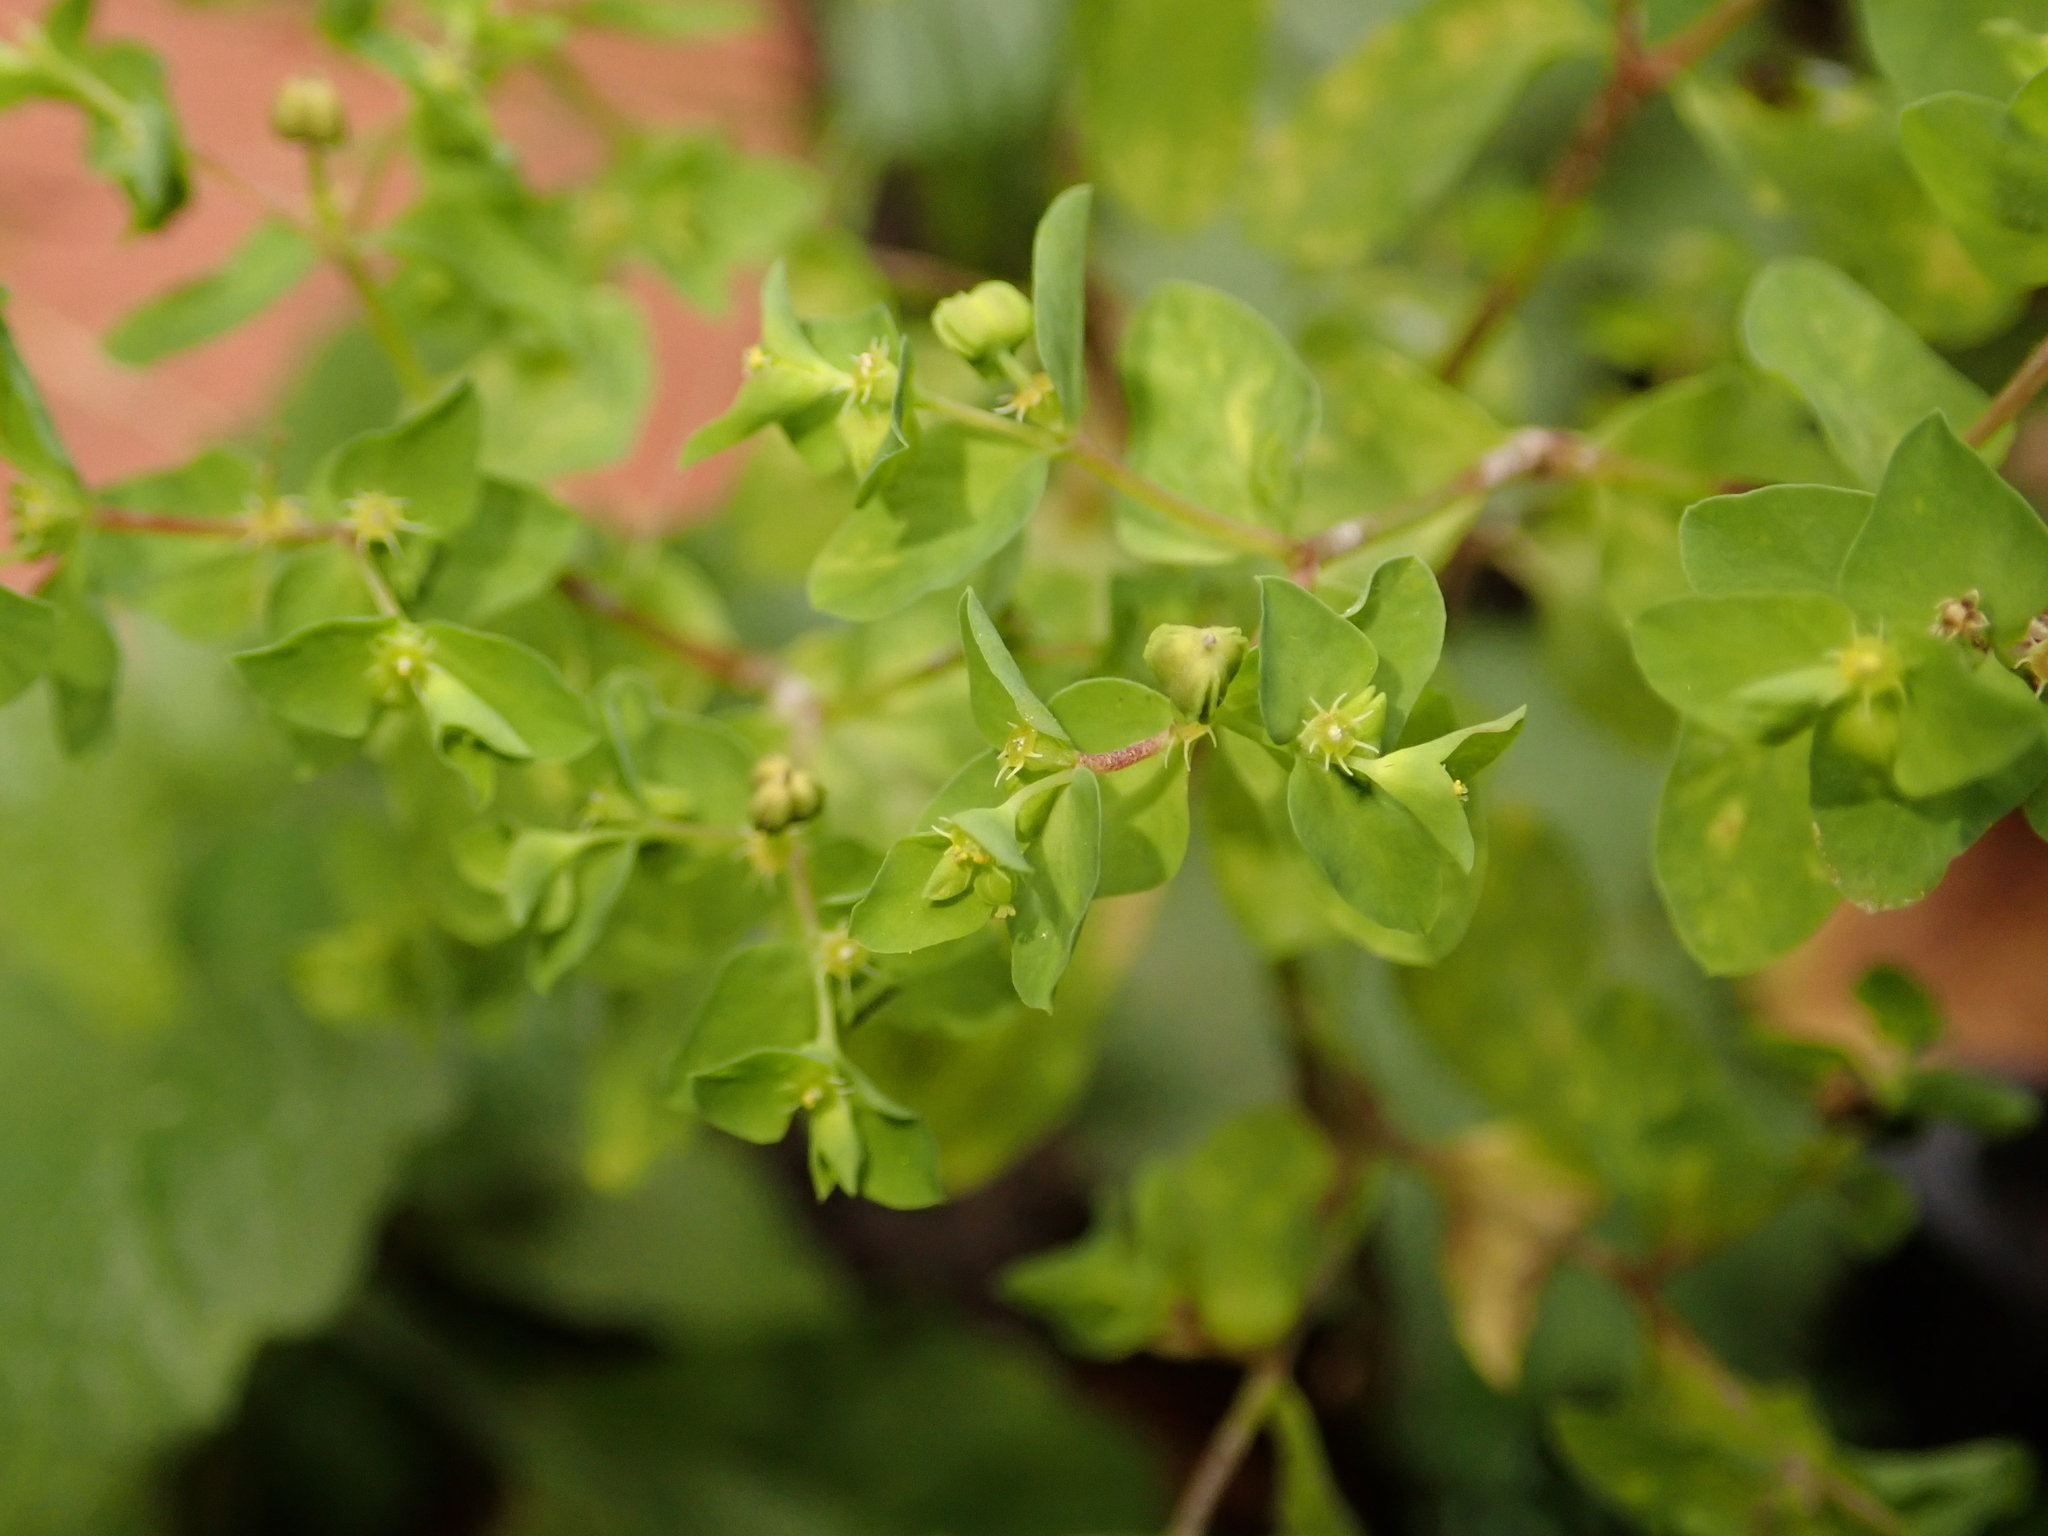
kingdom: Plantae
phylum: Tracheophyta
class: Magnoliopsida
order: Malpighiales
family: Euphorbiaceae
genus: Euphorbia
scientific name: Euphorbia peplus
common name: Petty spurge
